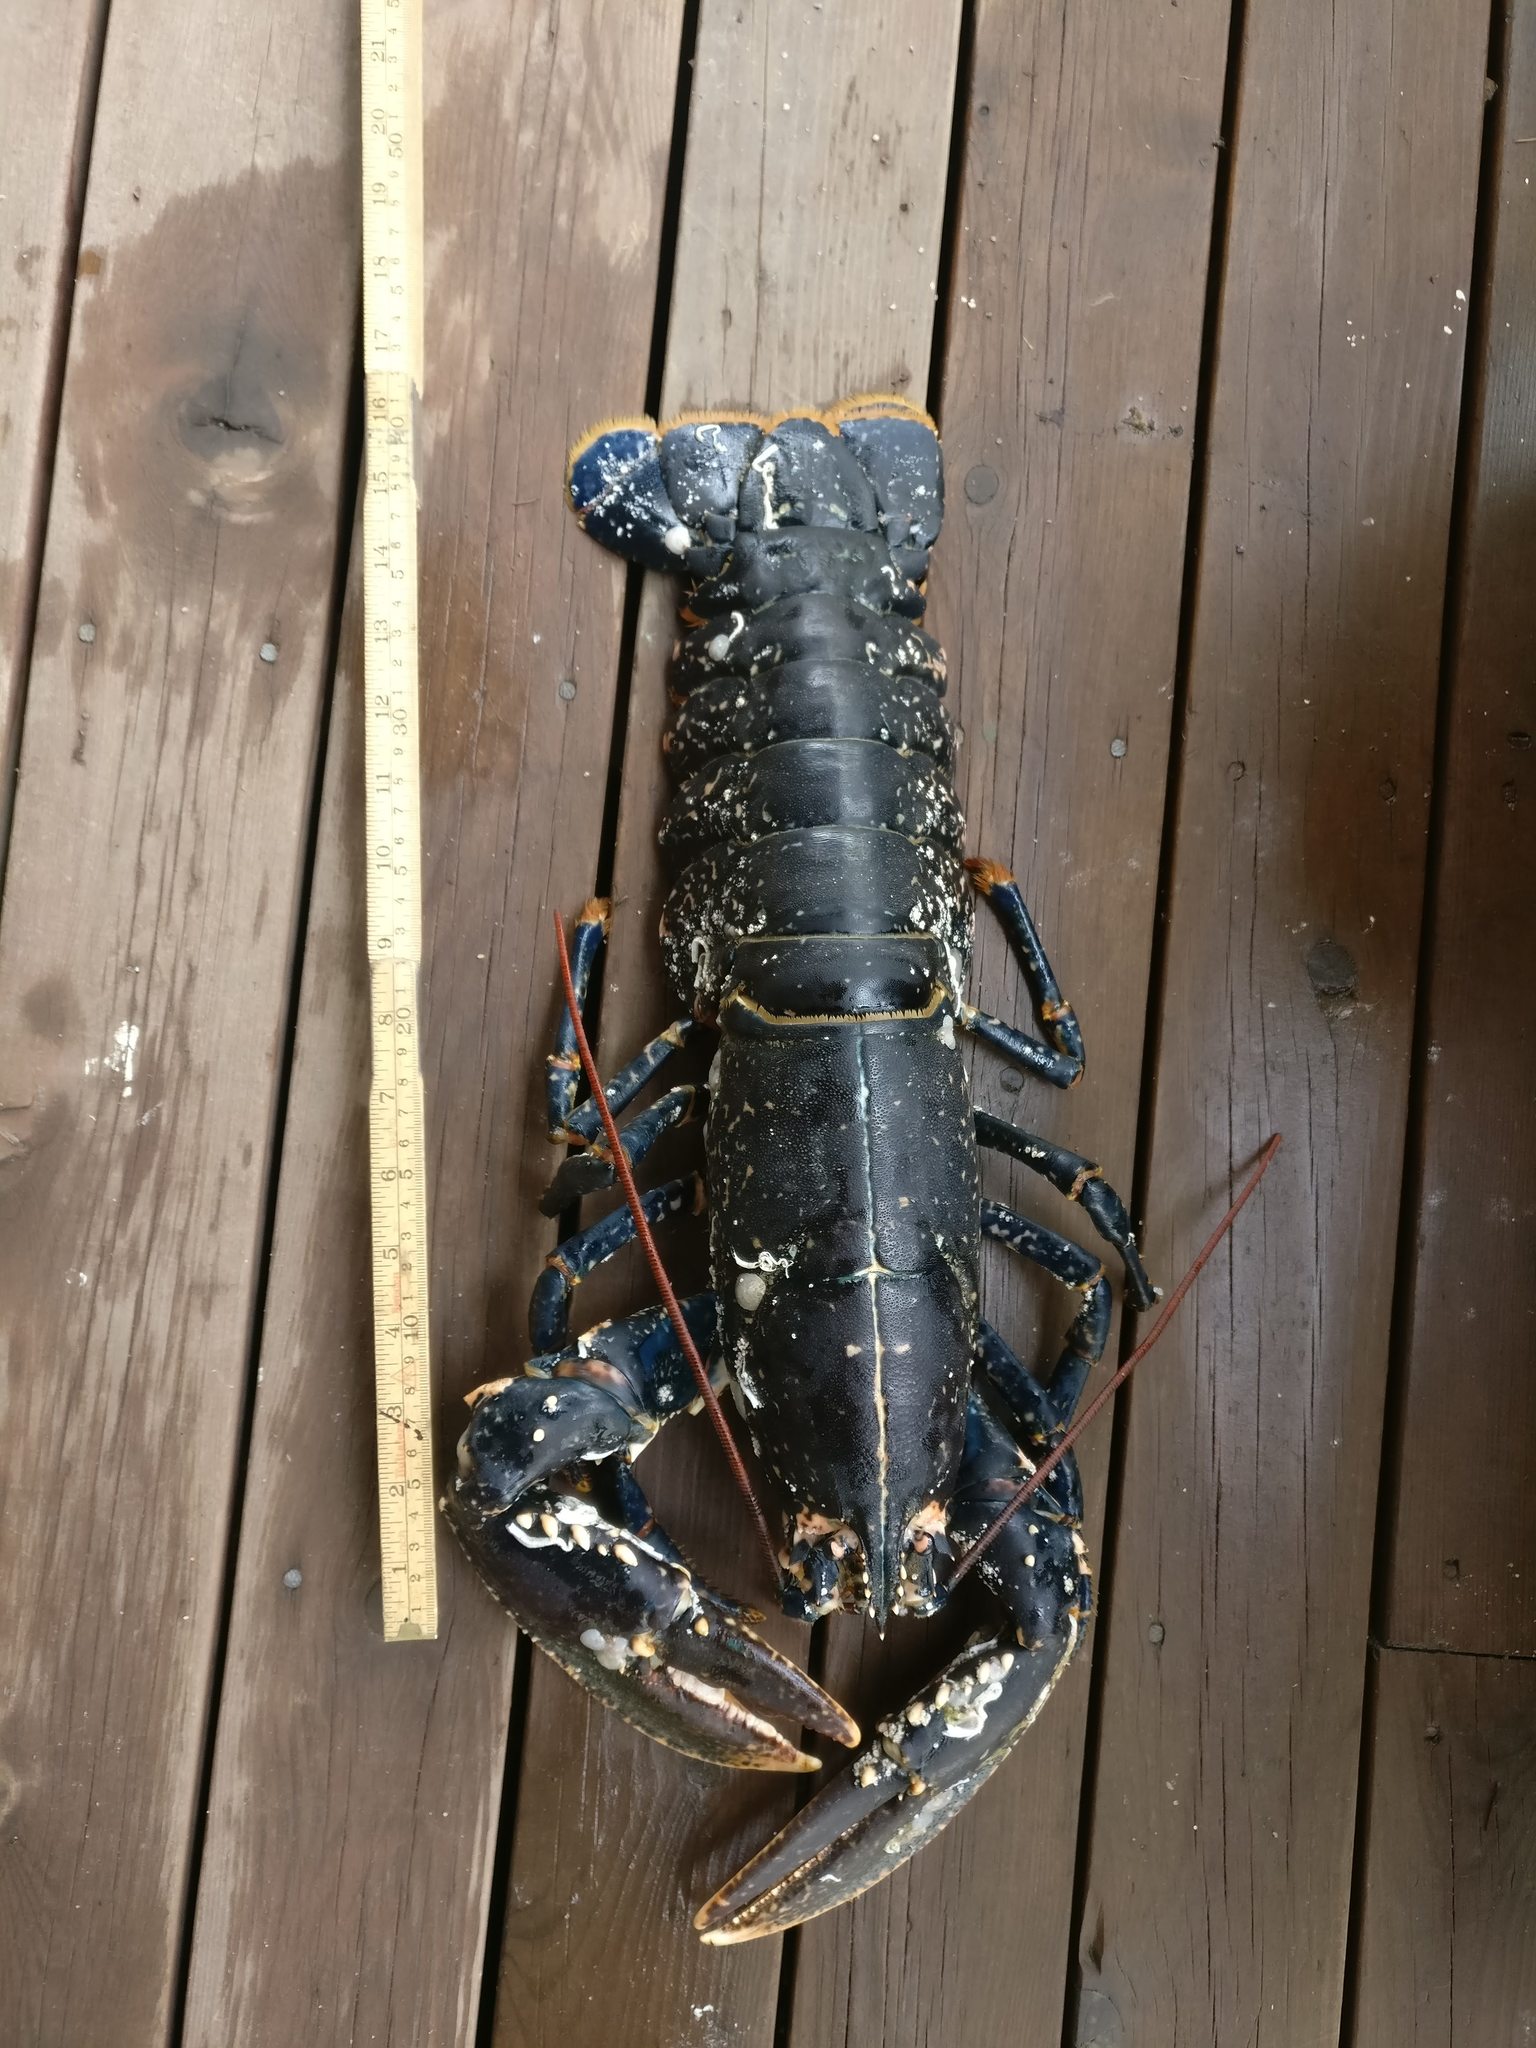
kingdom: Animalia
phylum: Arthropoda
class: Malacostraca
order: Decapoda
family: Nephropidae
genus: Homarus
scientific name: Homarus gammarus
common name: European lobster
